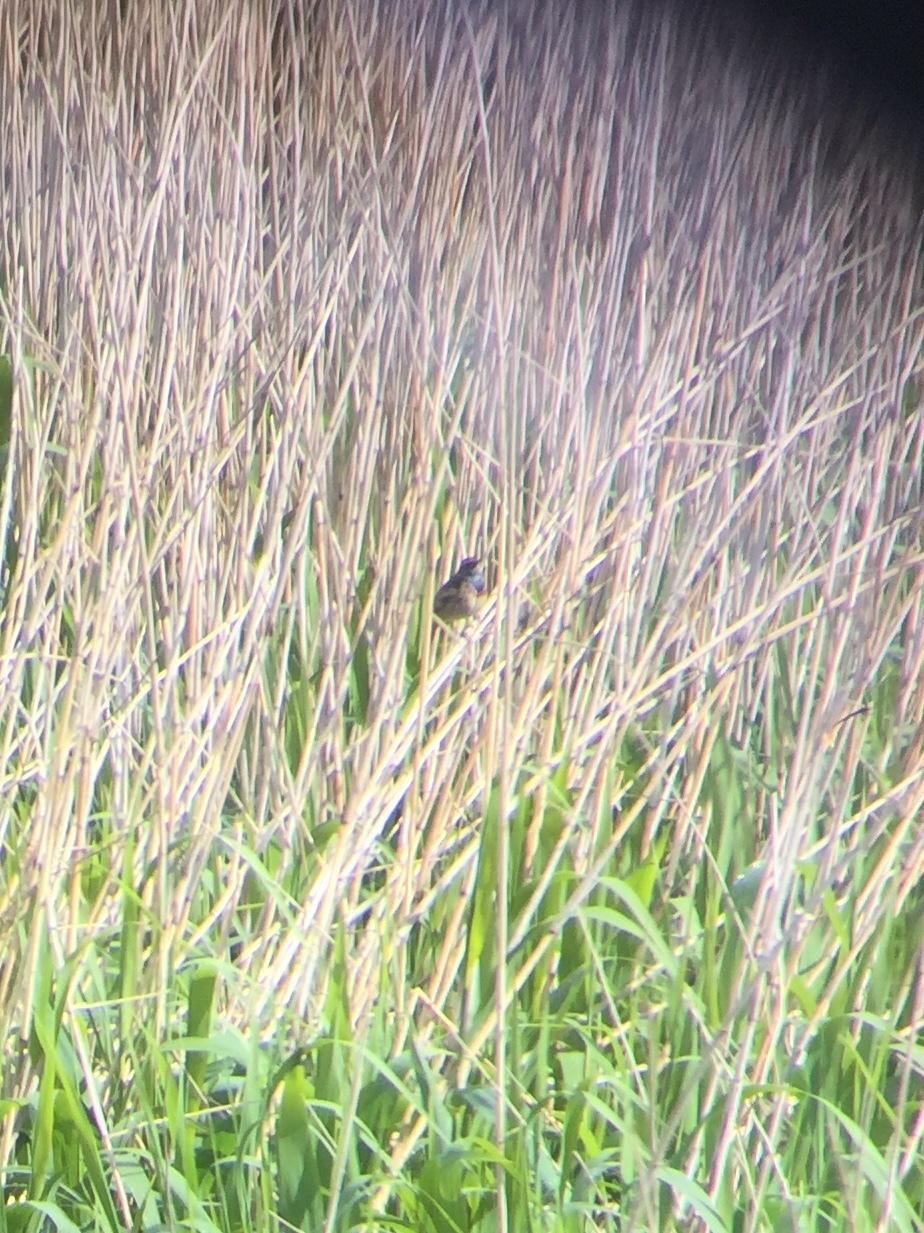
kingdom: Animalia
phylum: Chordata
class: Aves
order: Passeriformes
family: Muscicapidae
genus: Luscinia
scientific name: Luscinia svecica
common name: Bluethroat
